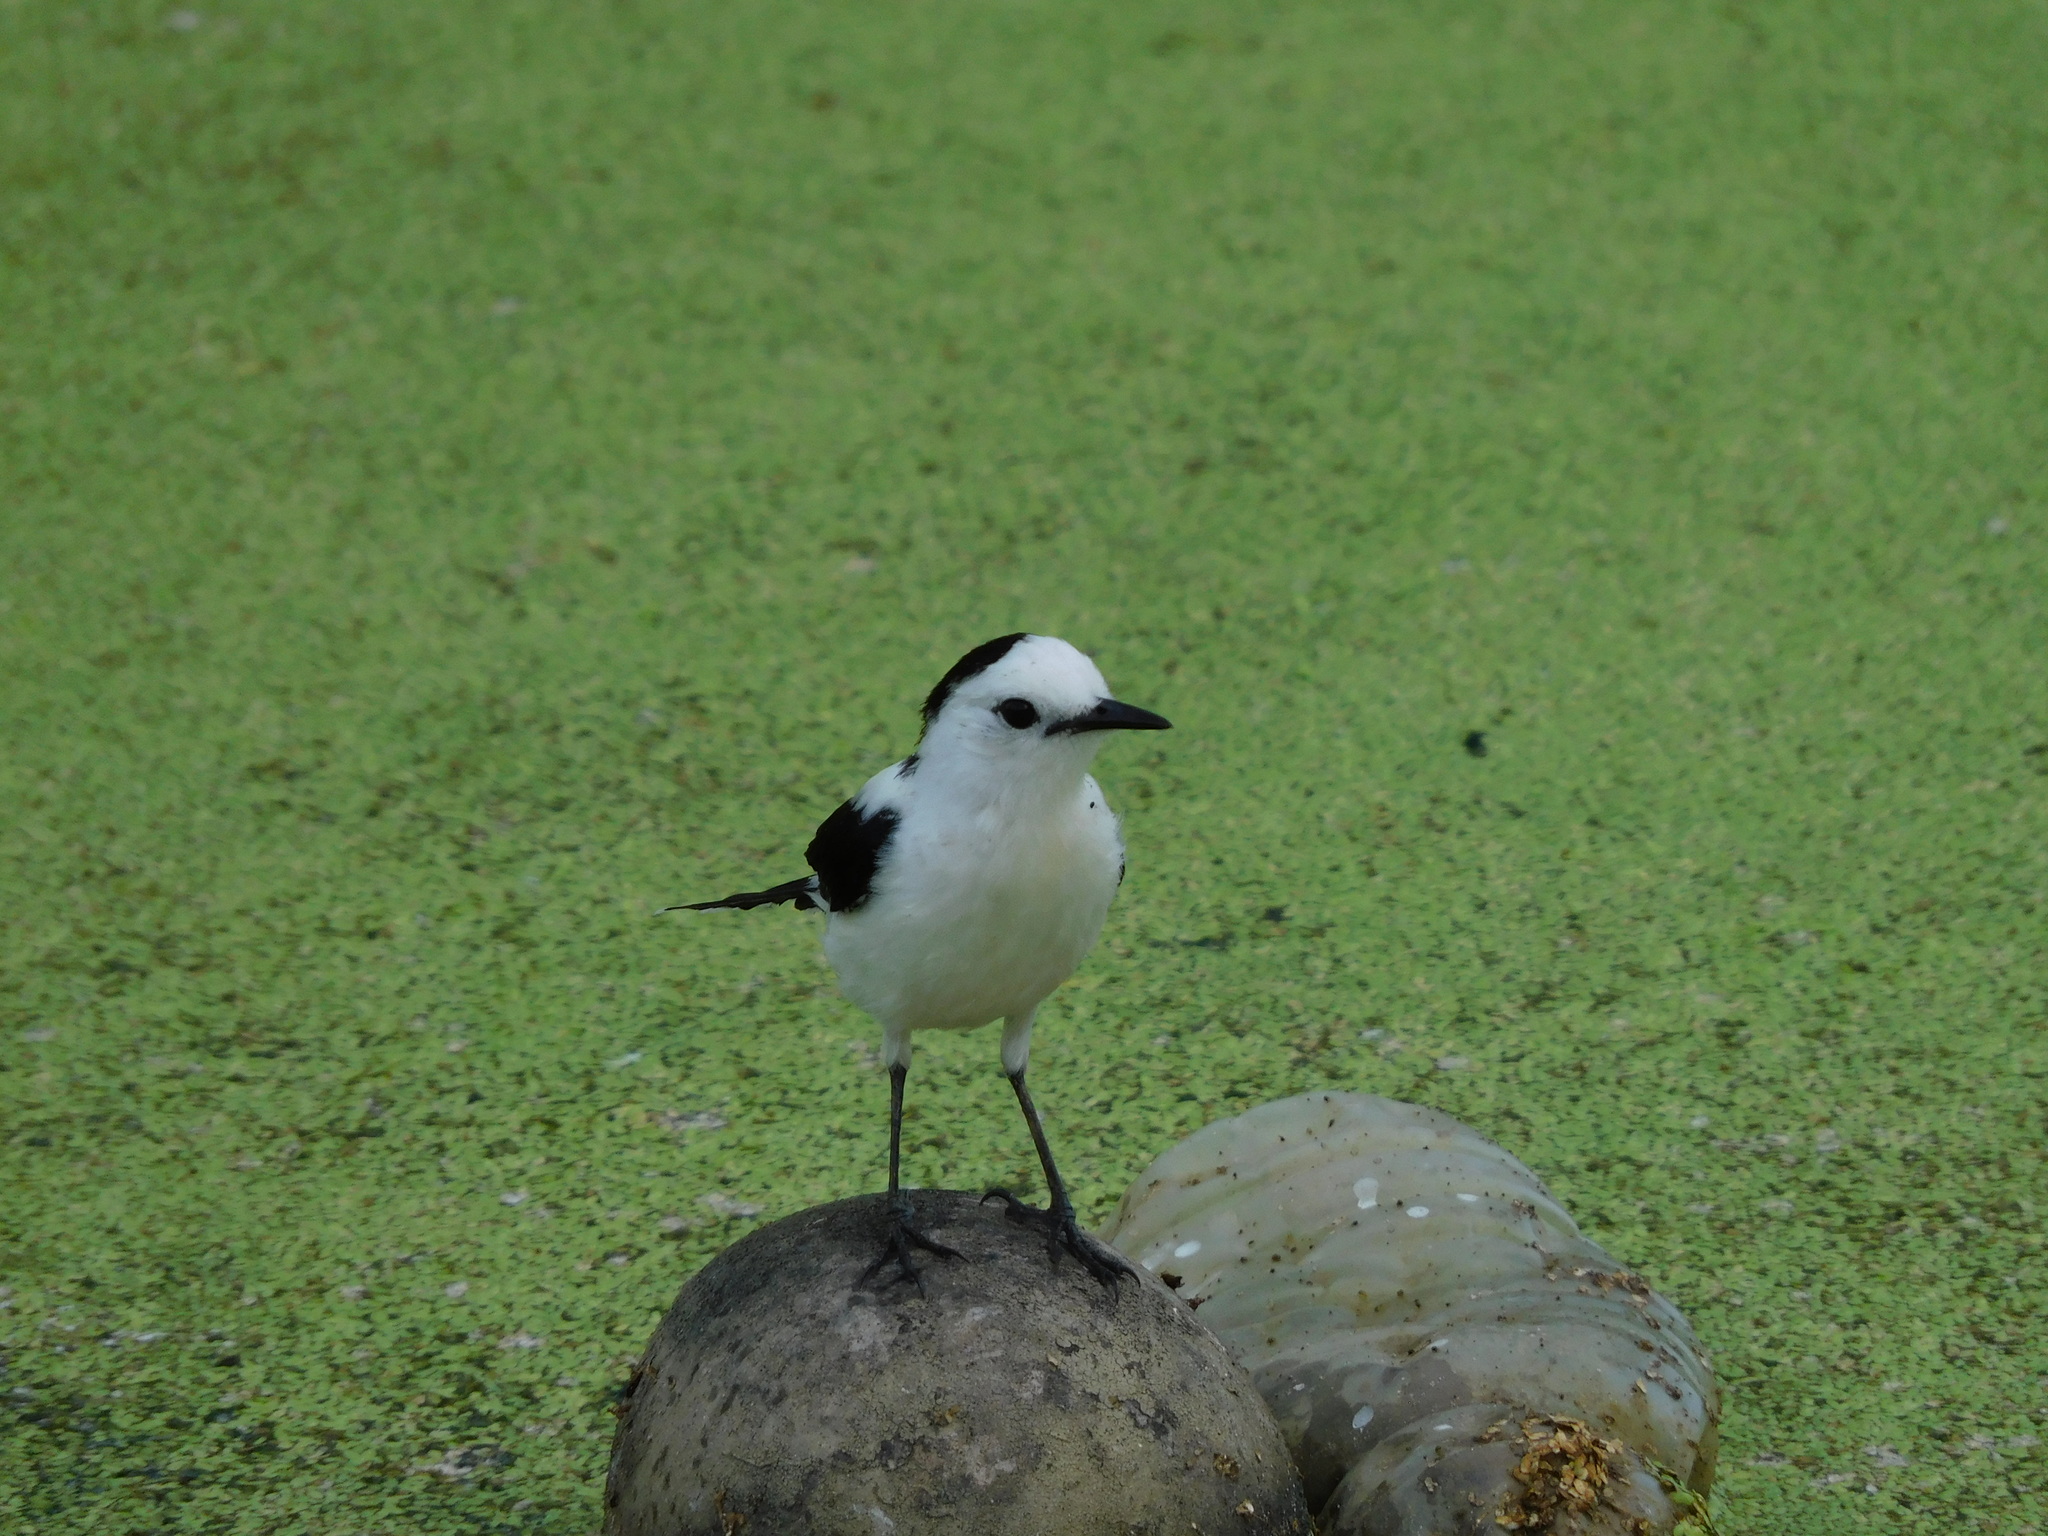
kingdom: Animalia
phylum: Chordata
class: Aves
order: Passeriformes
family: Tyrannidae
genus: Fluvicola
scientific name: Fluvicola pica
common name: Pied water-tyrant
